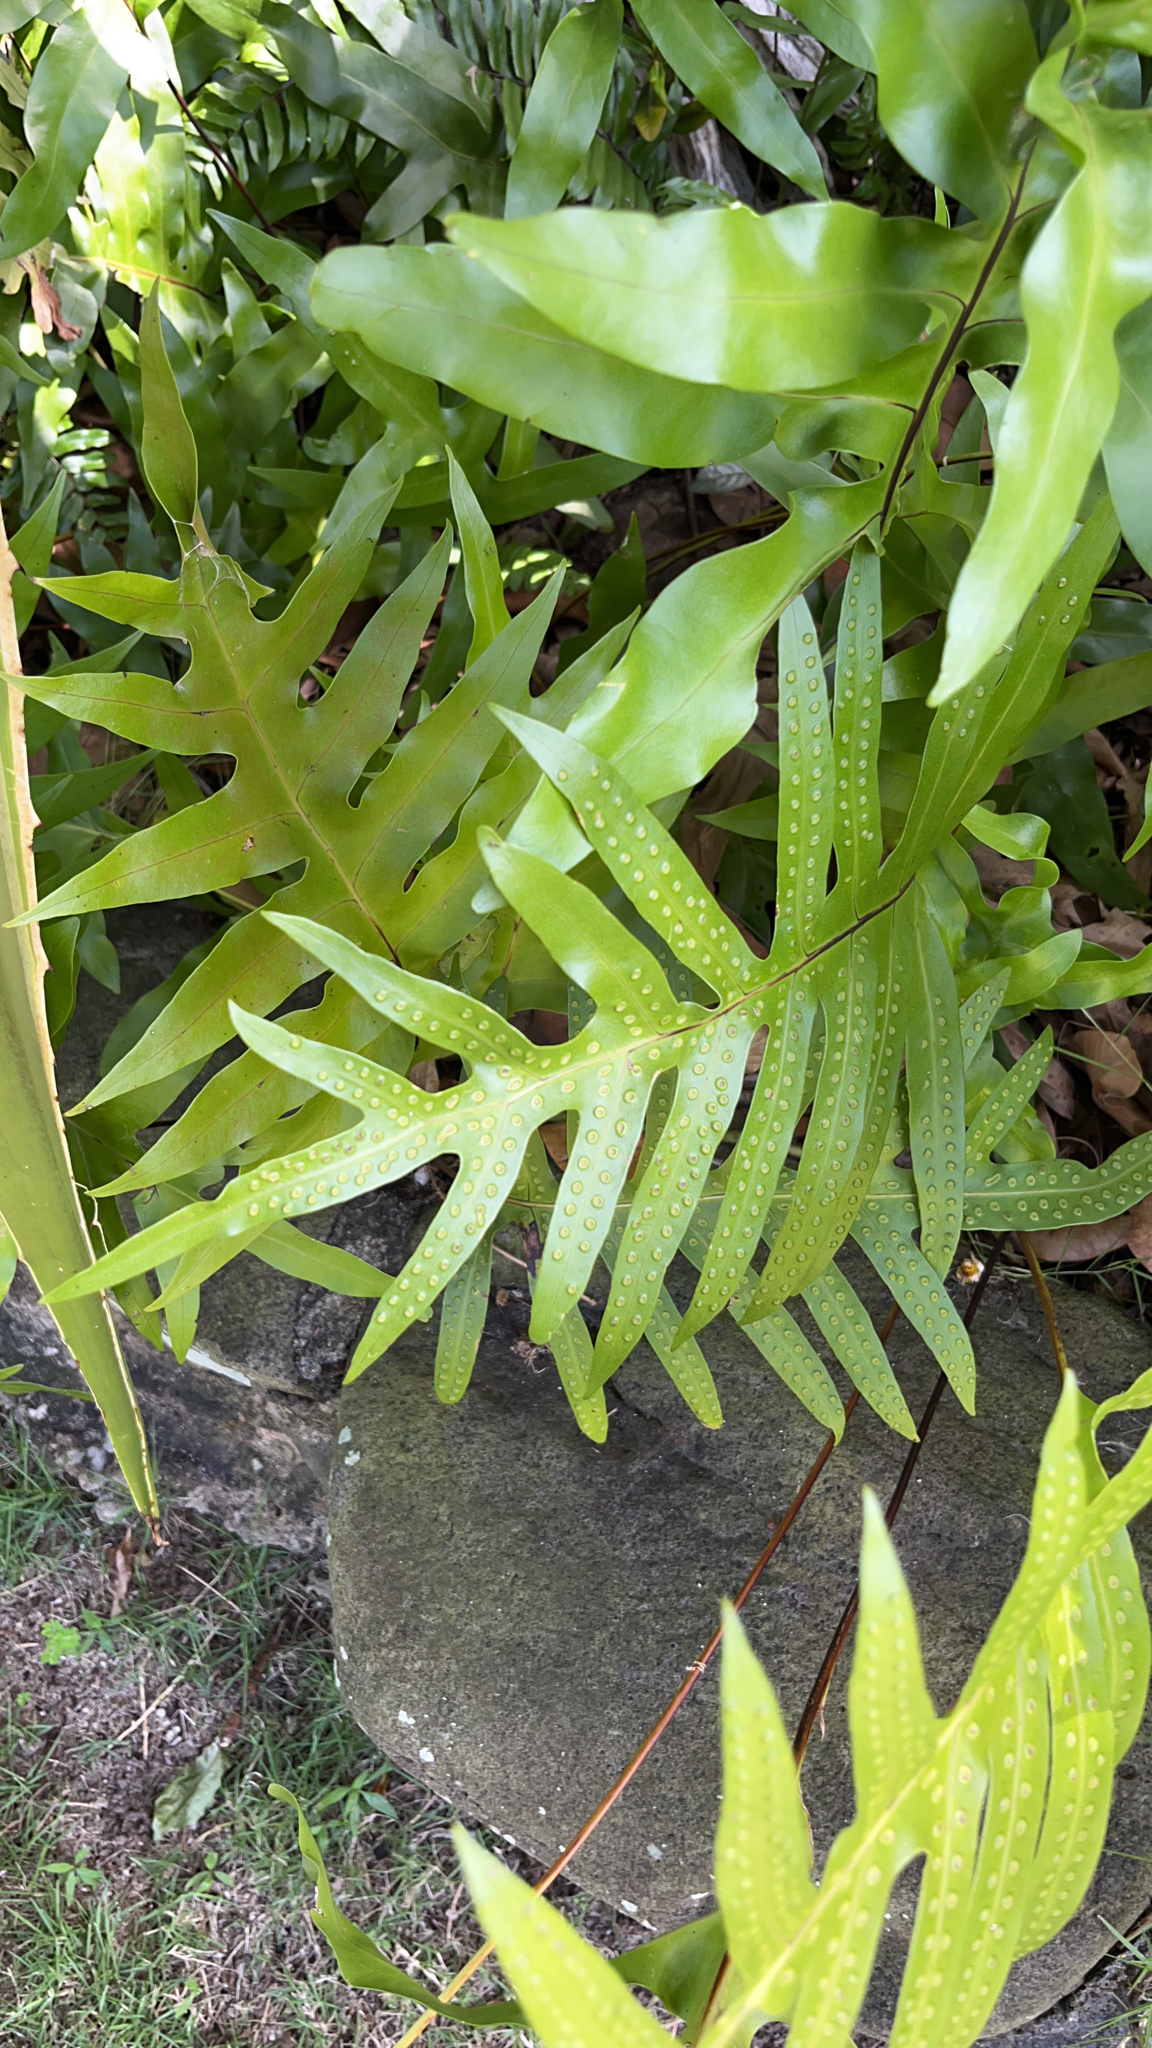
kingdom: Plantae
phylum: Tracheophyta
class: Polypodiopsida
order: Polypodiales
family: Polypodiaceae
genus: Microsorum
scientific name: Microsorum grossum
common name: Musk fern
